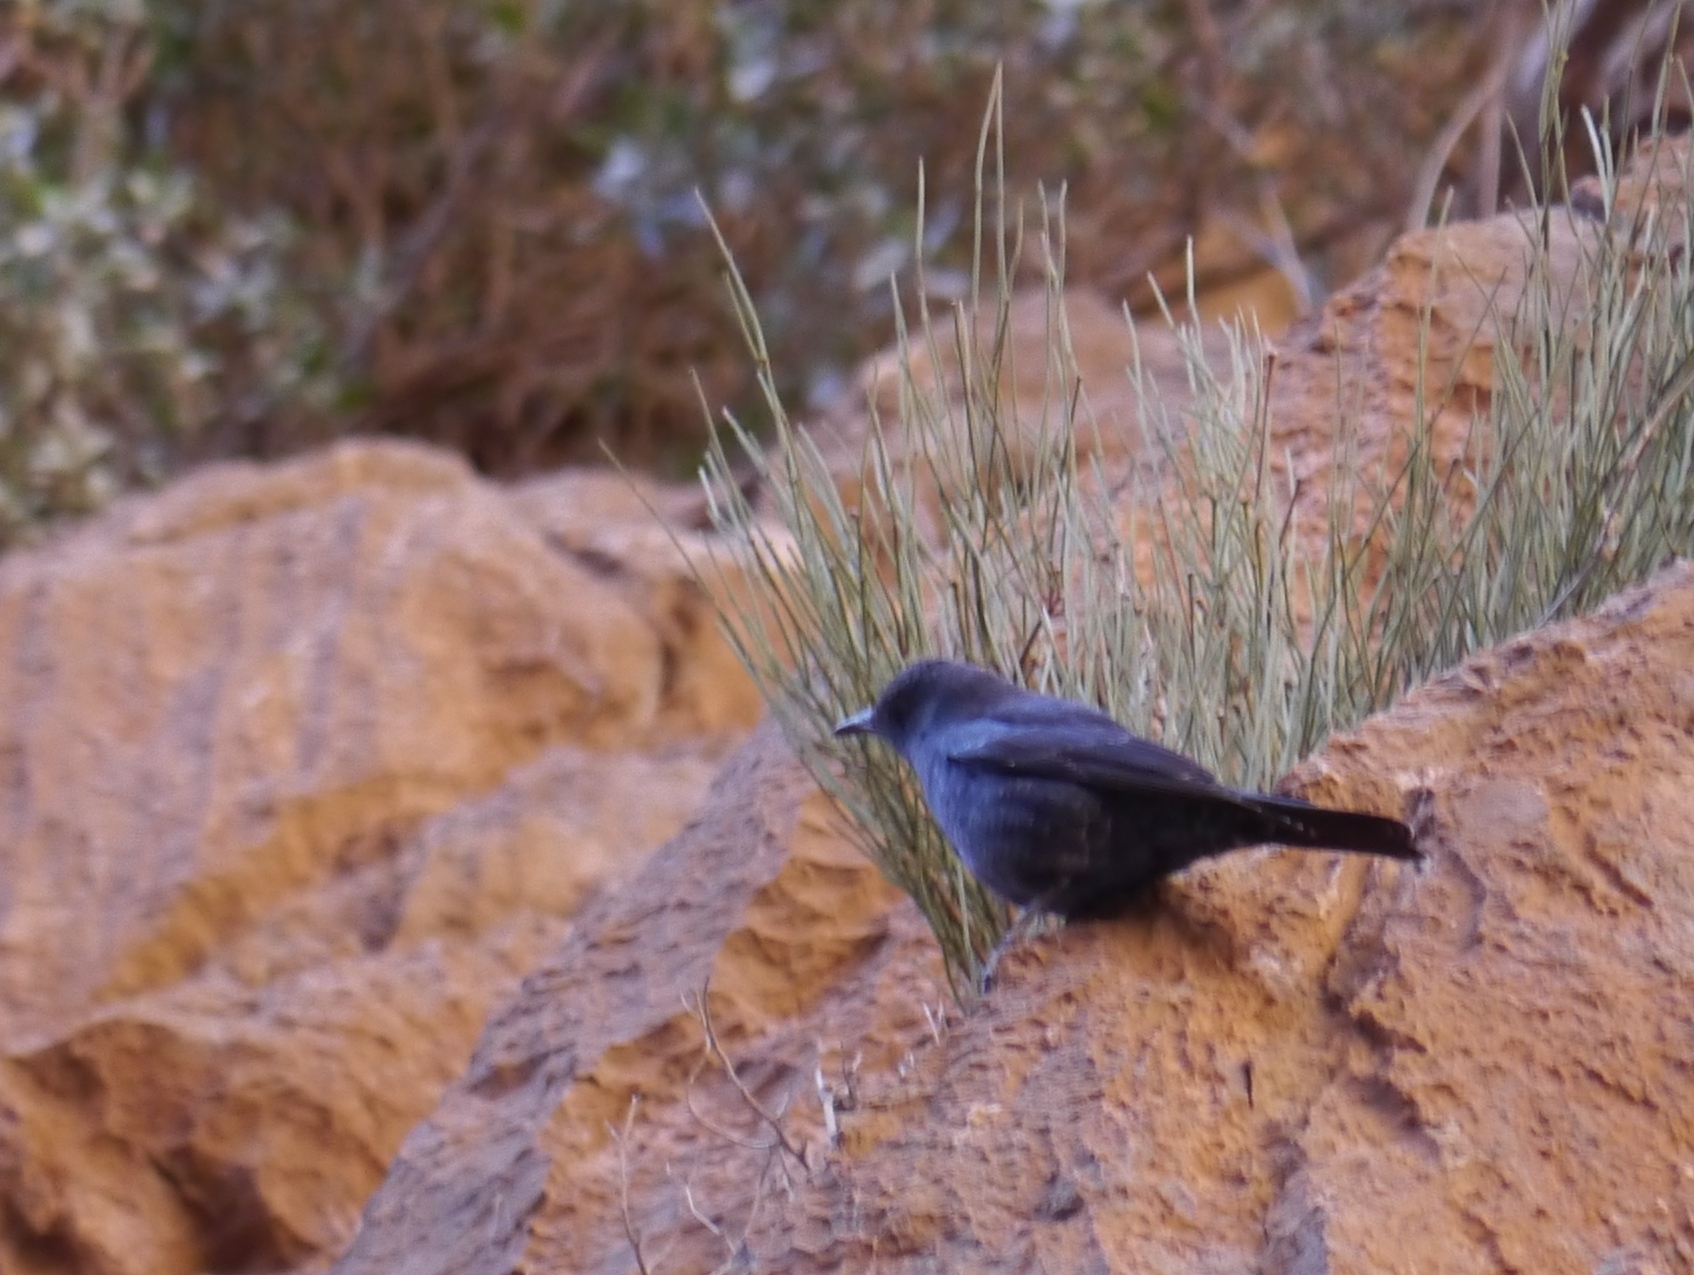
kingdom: Animalia
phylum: Chordata
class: Aves
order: Passeriformes
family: Muscicapidae
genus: Monticola
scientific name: Monticola solitarius
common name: Blue rock thrush
